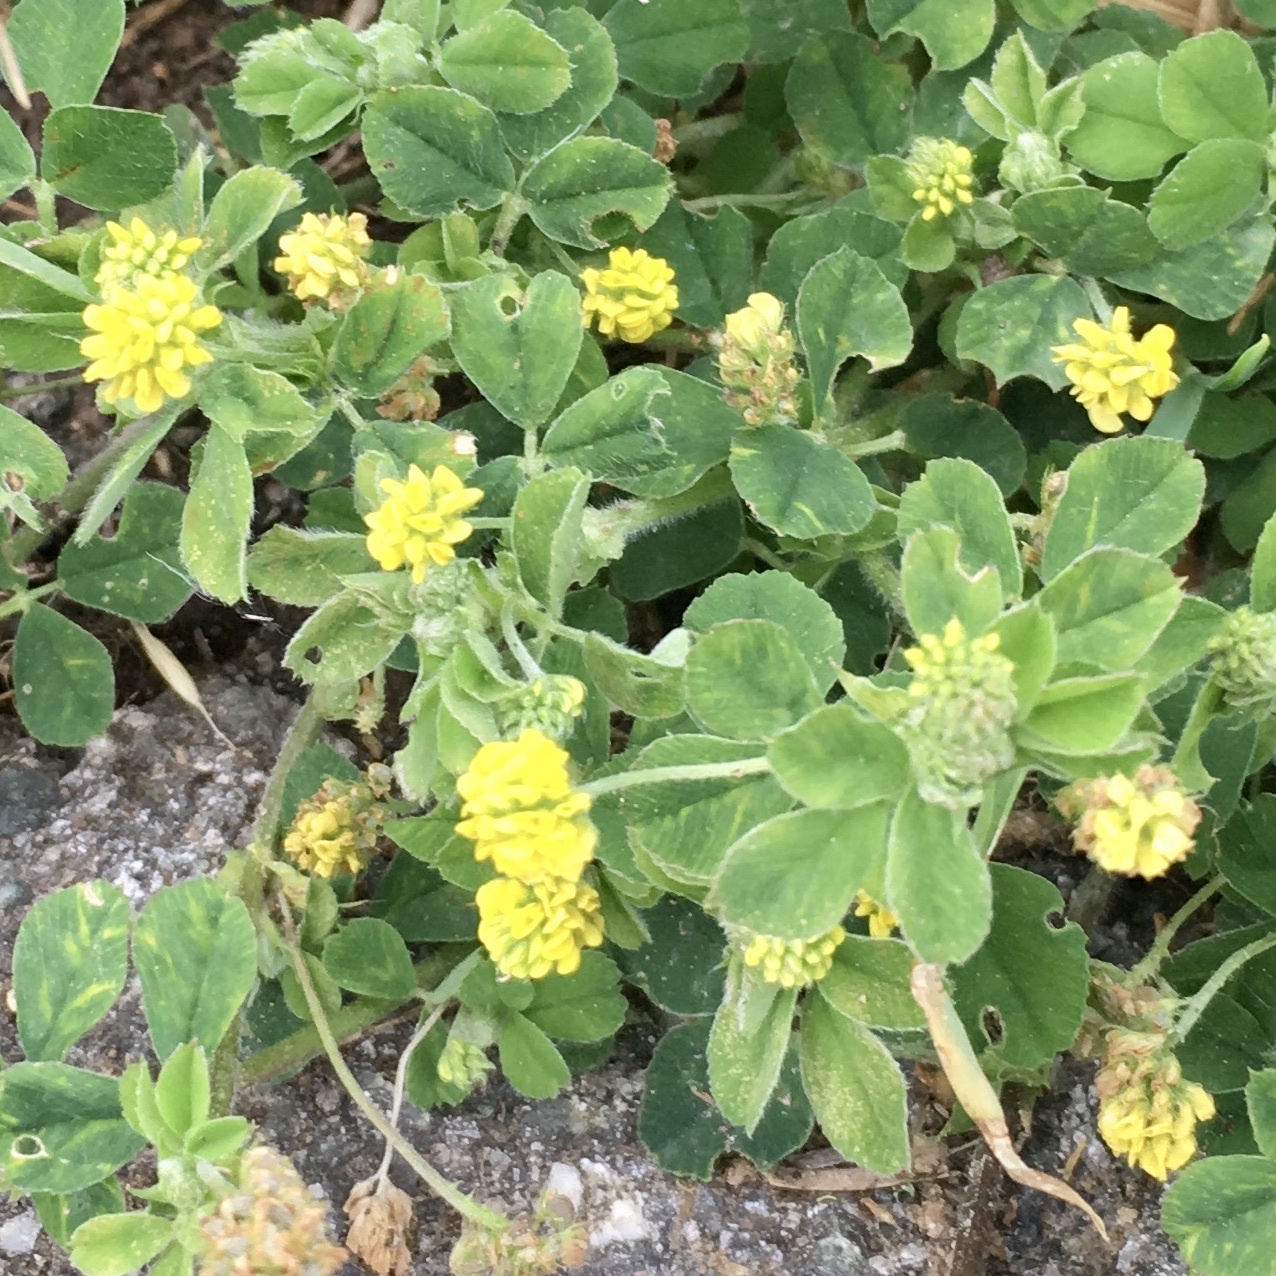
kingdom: Plantae
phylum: Tracheophyta
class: Magnoliopsida
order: Fabales
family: Fabaceae
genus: Medicago
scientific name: Medicago lupulina
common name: Black medick
